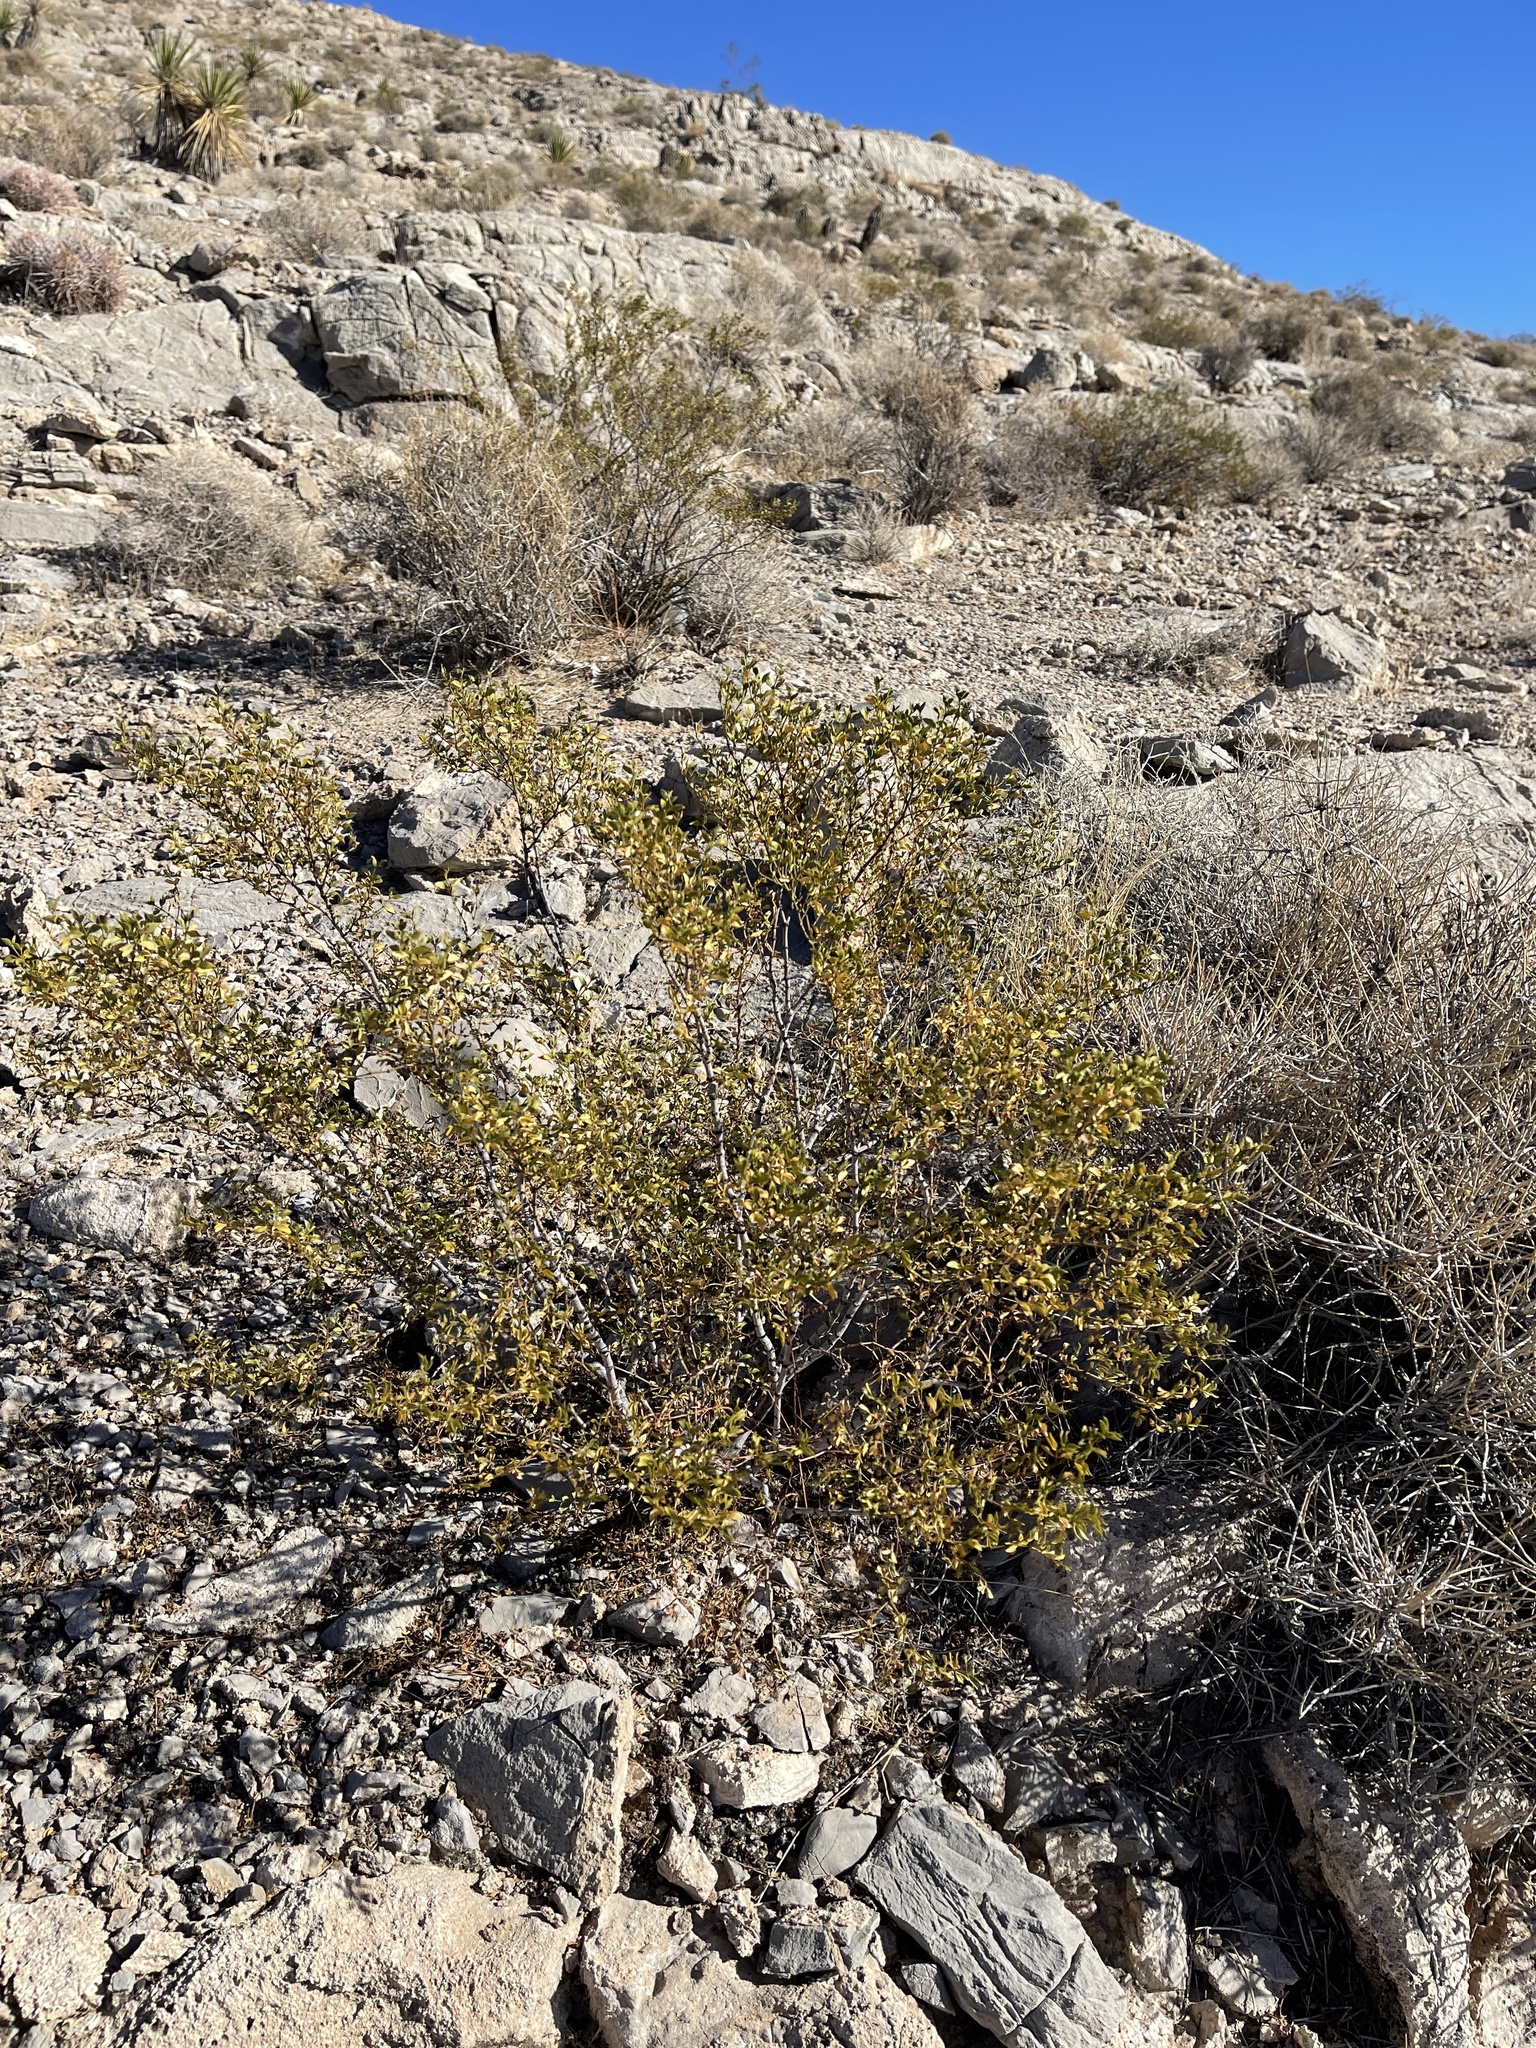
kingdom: Plantae
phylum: Tracheophyta
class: Magnoliopsida
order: Zygophyllales
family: Zygophyllaceae
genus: Larrea
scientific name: Larrea tridentata
